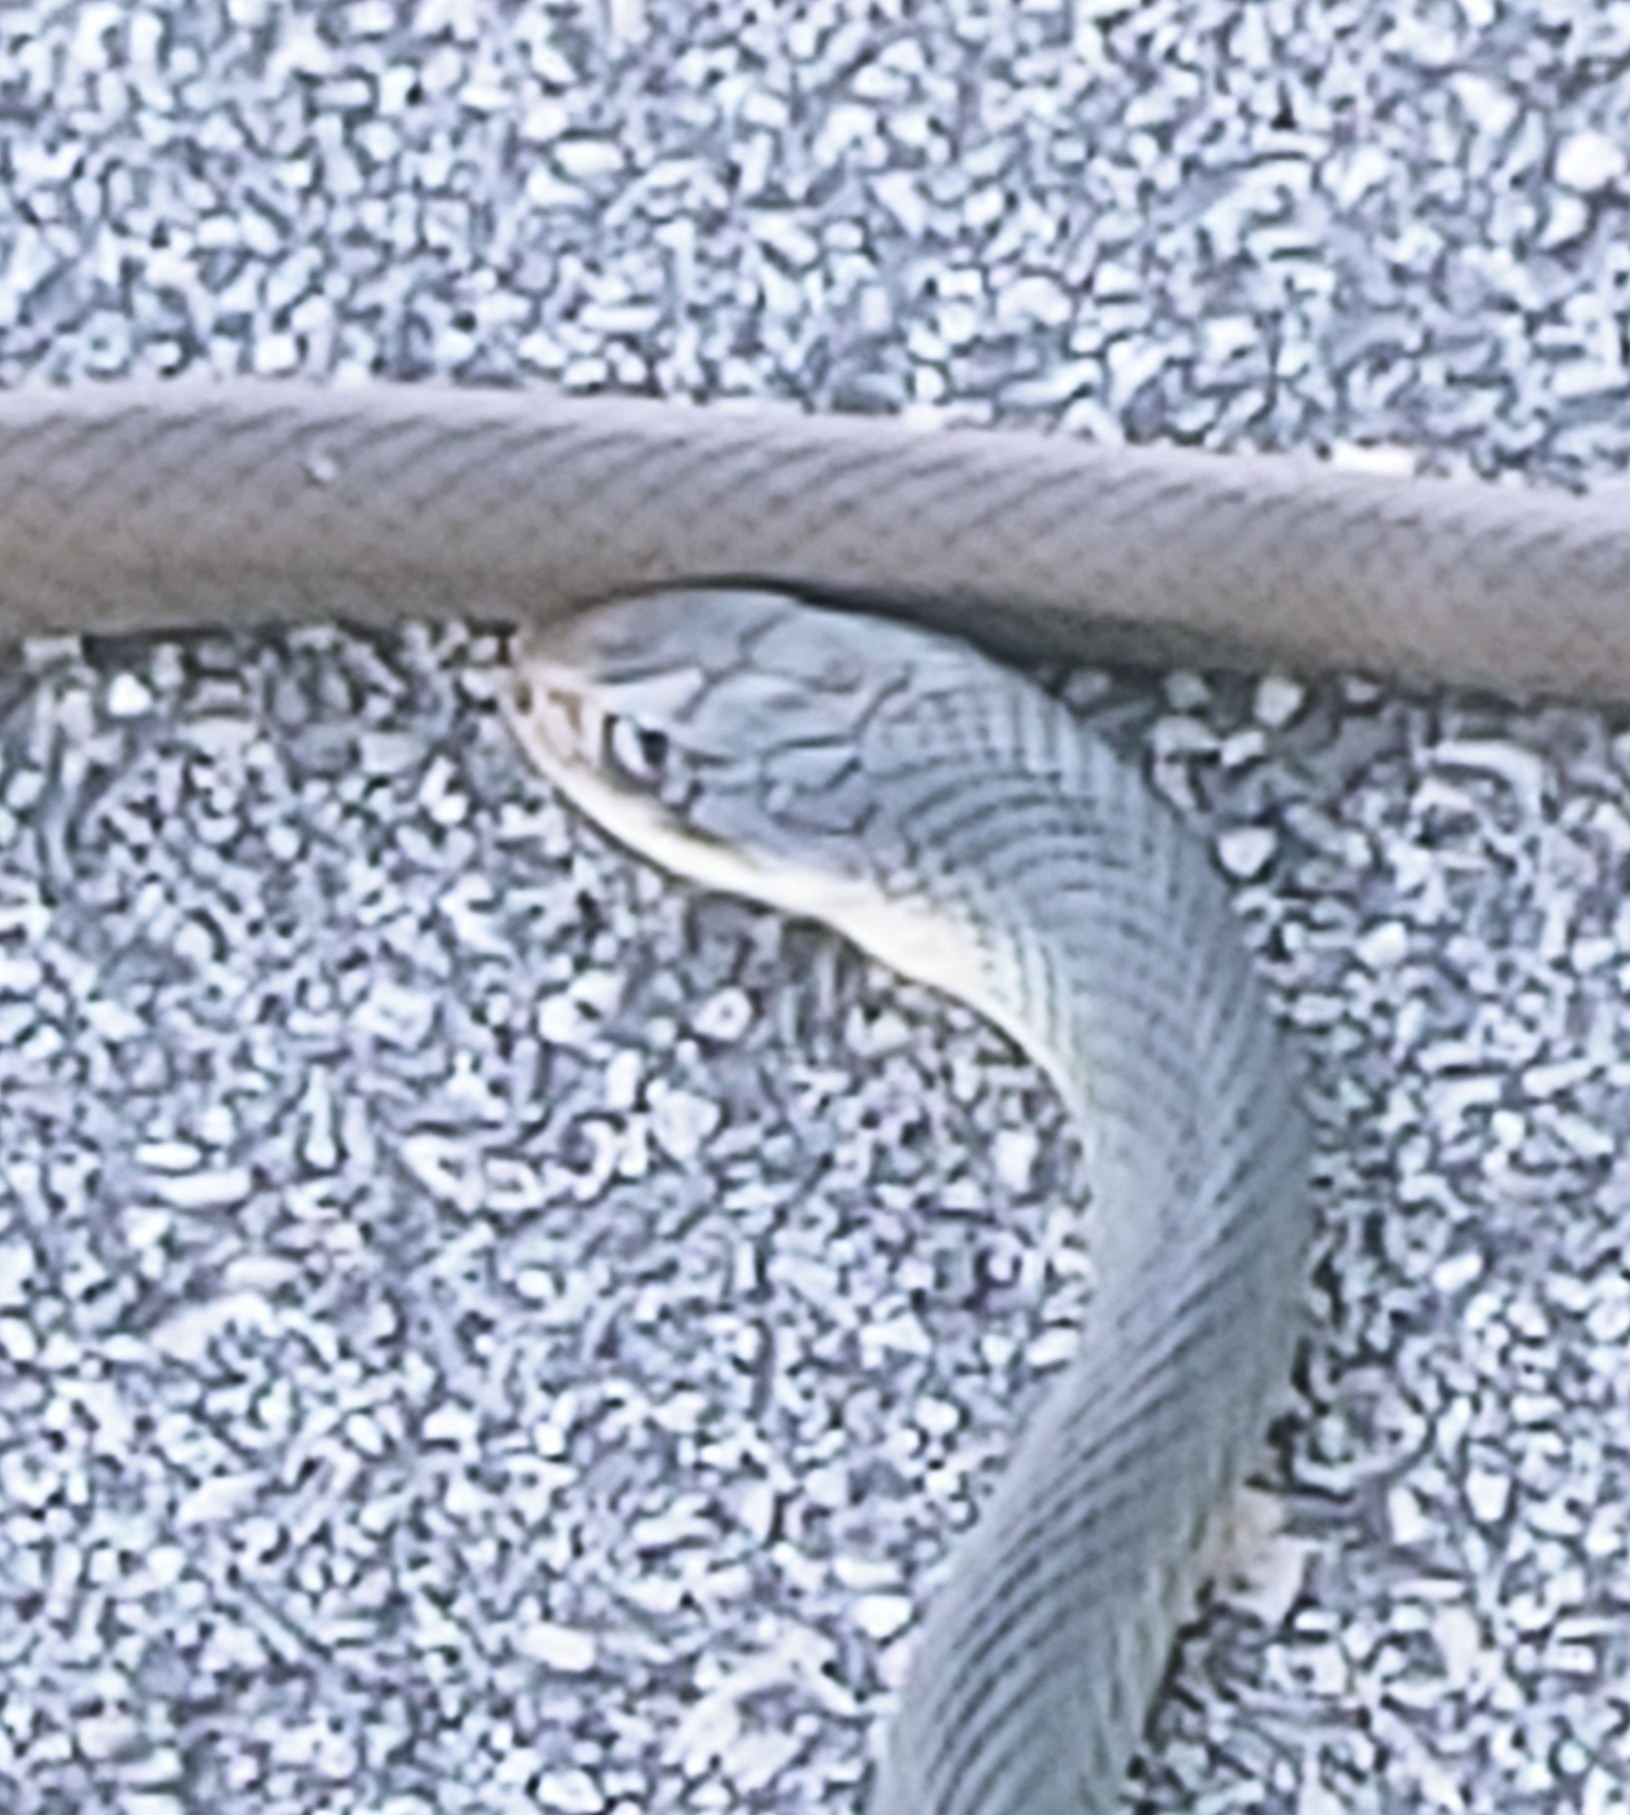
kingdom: Animalia
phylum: Chordata
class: Squamata
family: Colubridae
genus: Coluber
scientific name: Coluber constrictor
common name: Eastern racer
